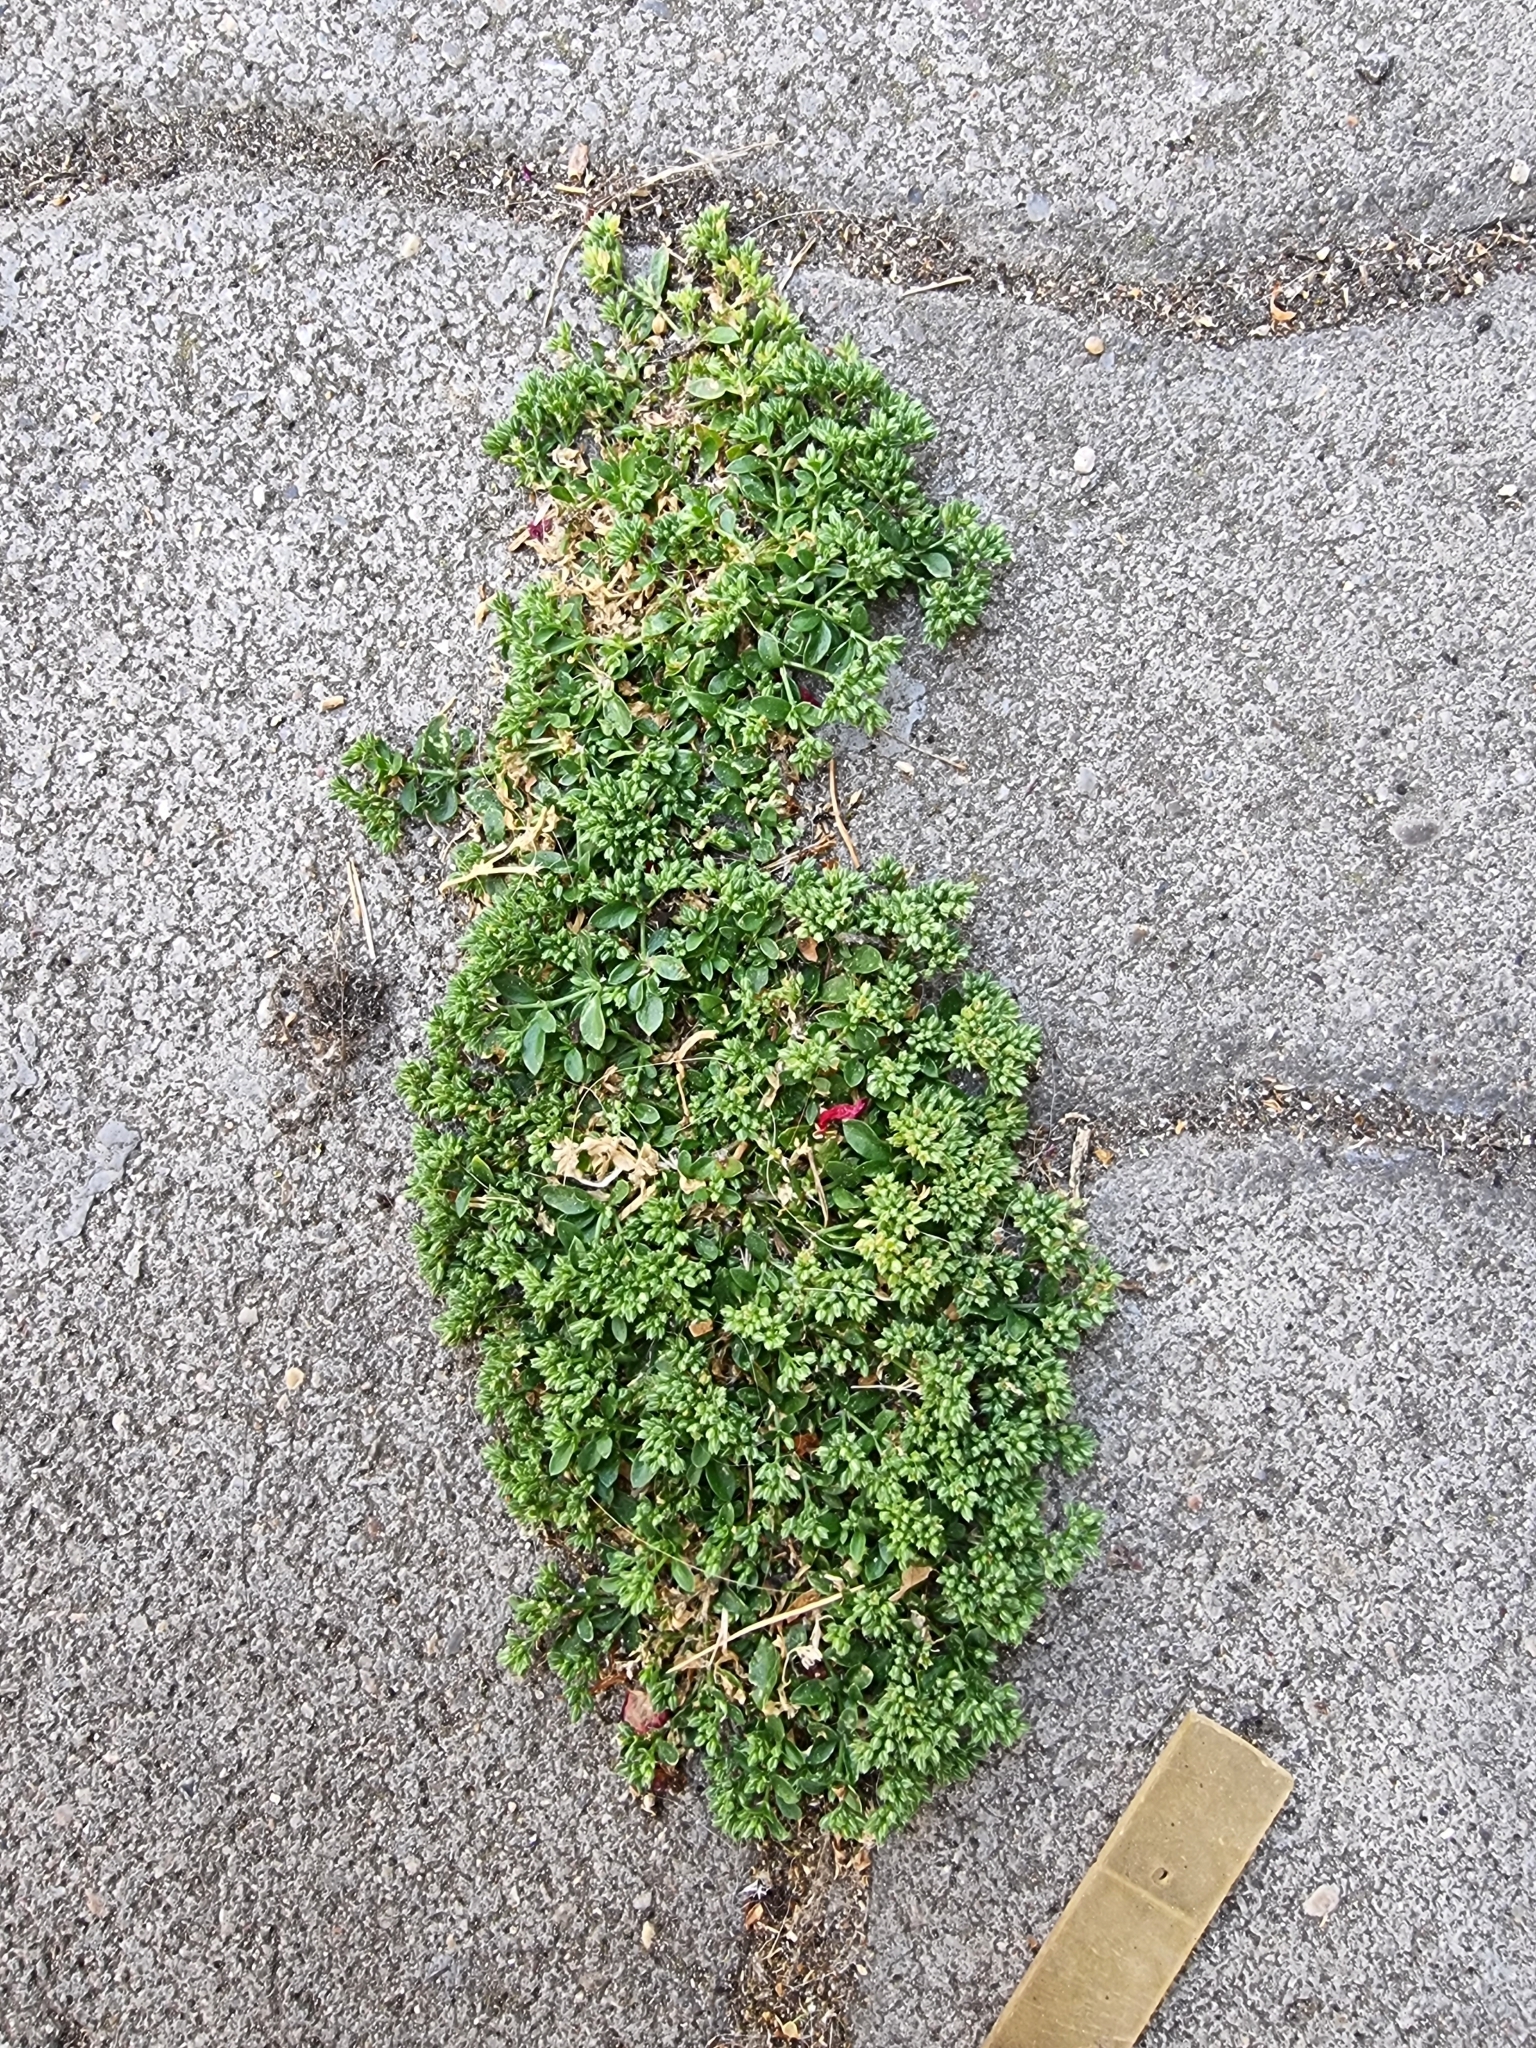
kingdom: Plantae
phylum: Tracheophyta
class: Magnoliopsida
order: Caryophyllales
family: Caryophyllaceae
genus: Polycarpon
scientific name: Polycarpon tetraphyllum
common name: Four-leaved all-seed
